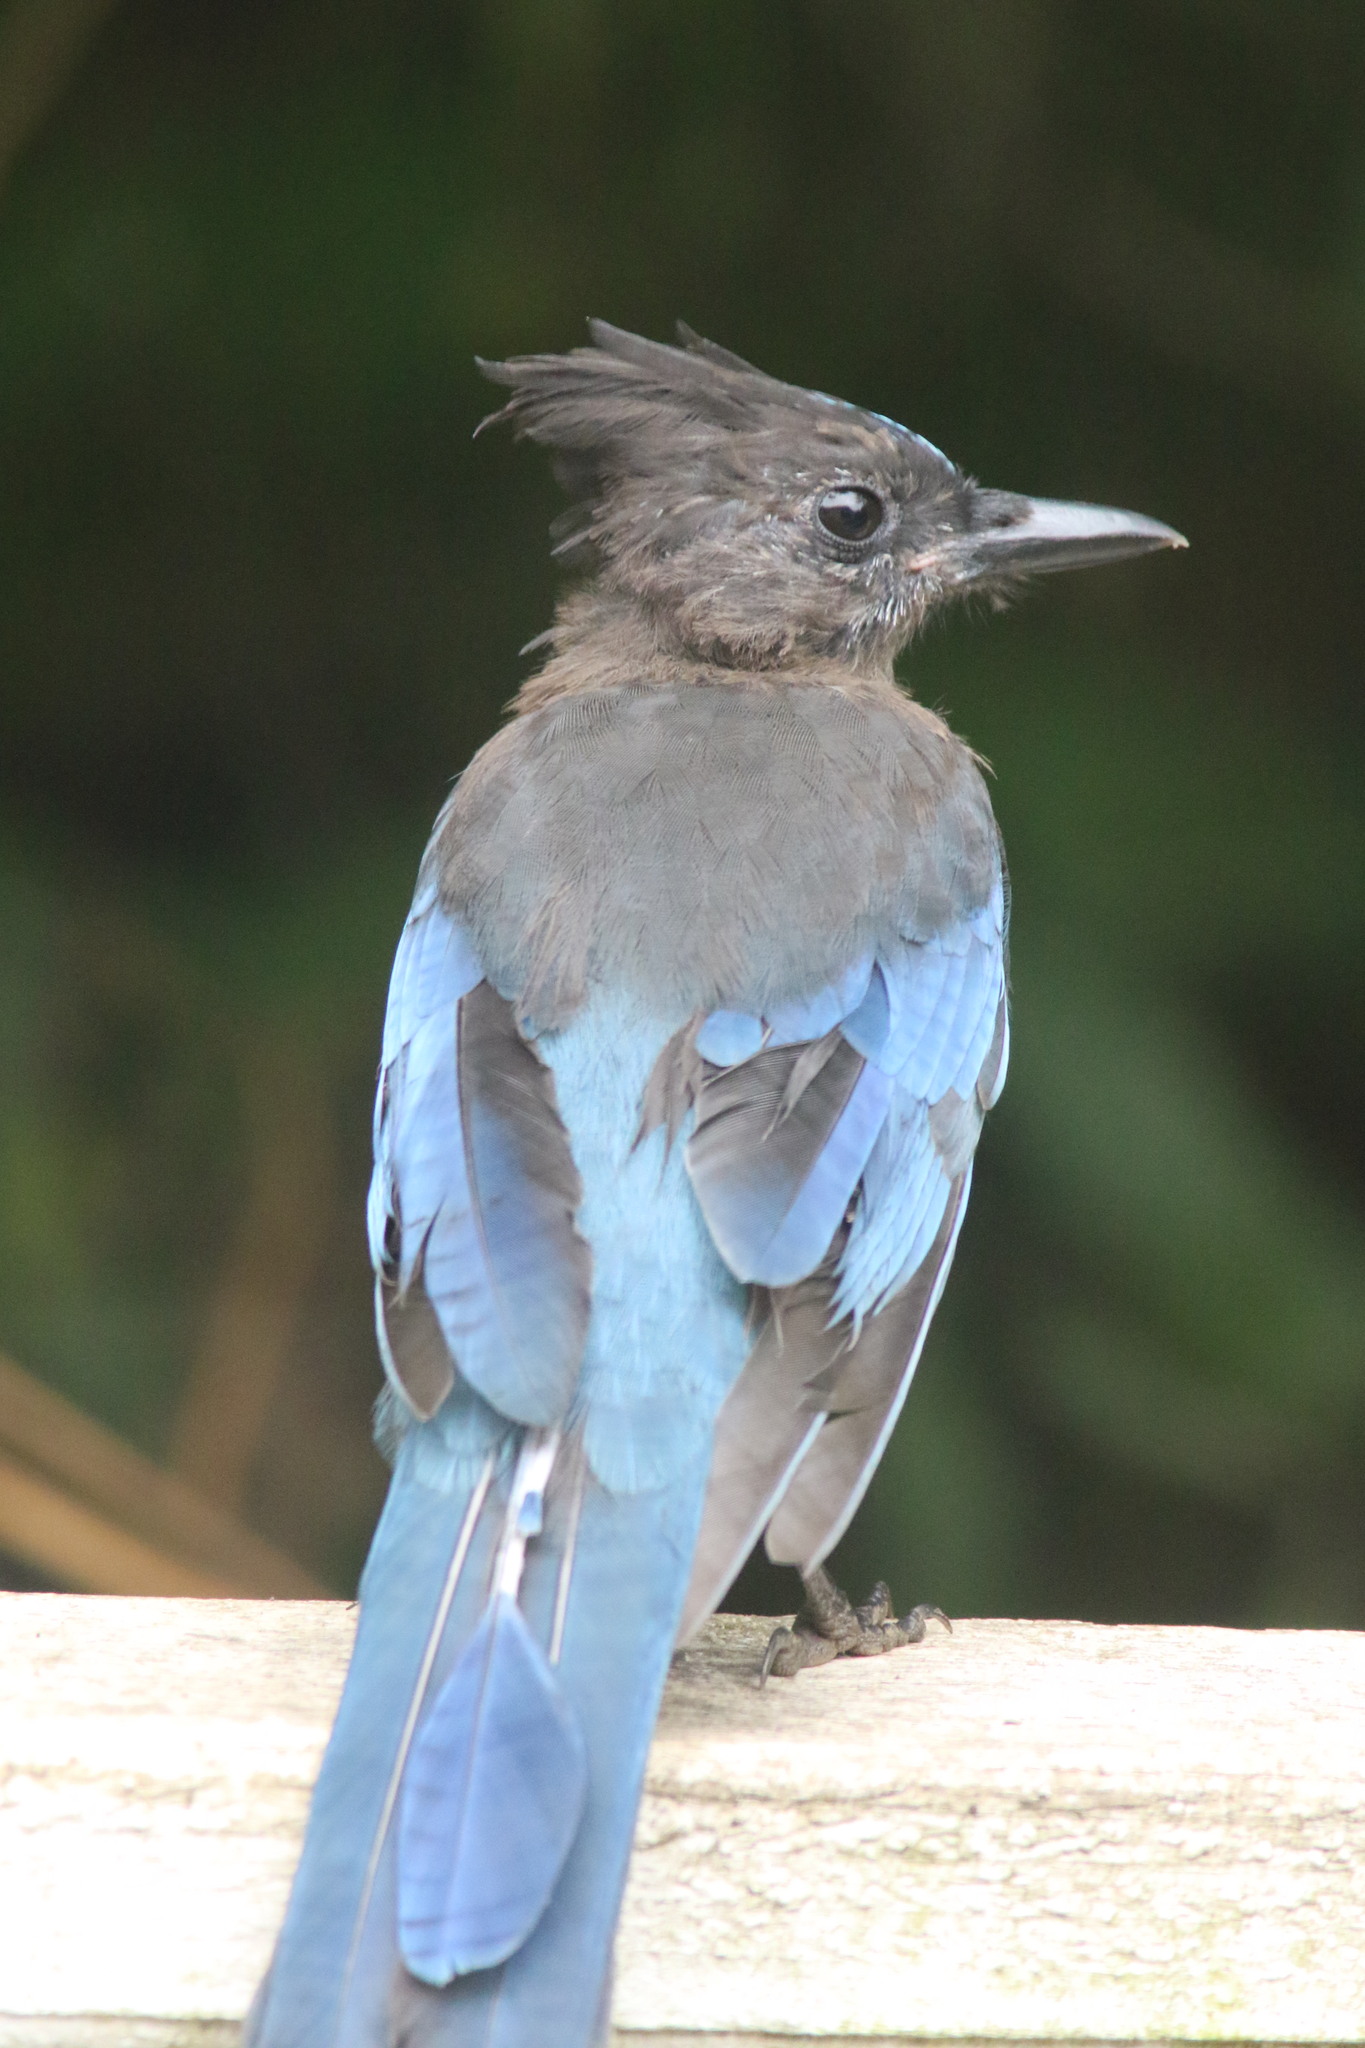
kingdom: Animalia
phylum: Chordata
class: Aves
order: Passeriformes
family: Corvidae
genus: Cyanocitta
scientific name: Cyanocitta stelleri
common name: Steller's jay
